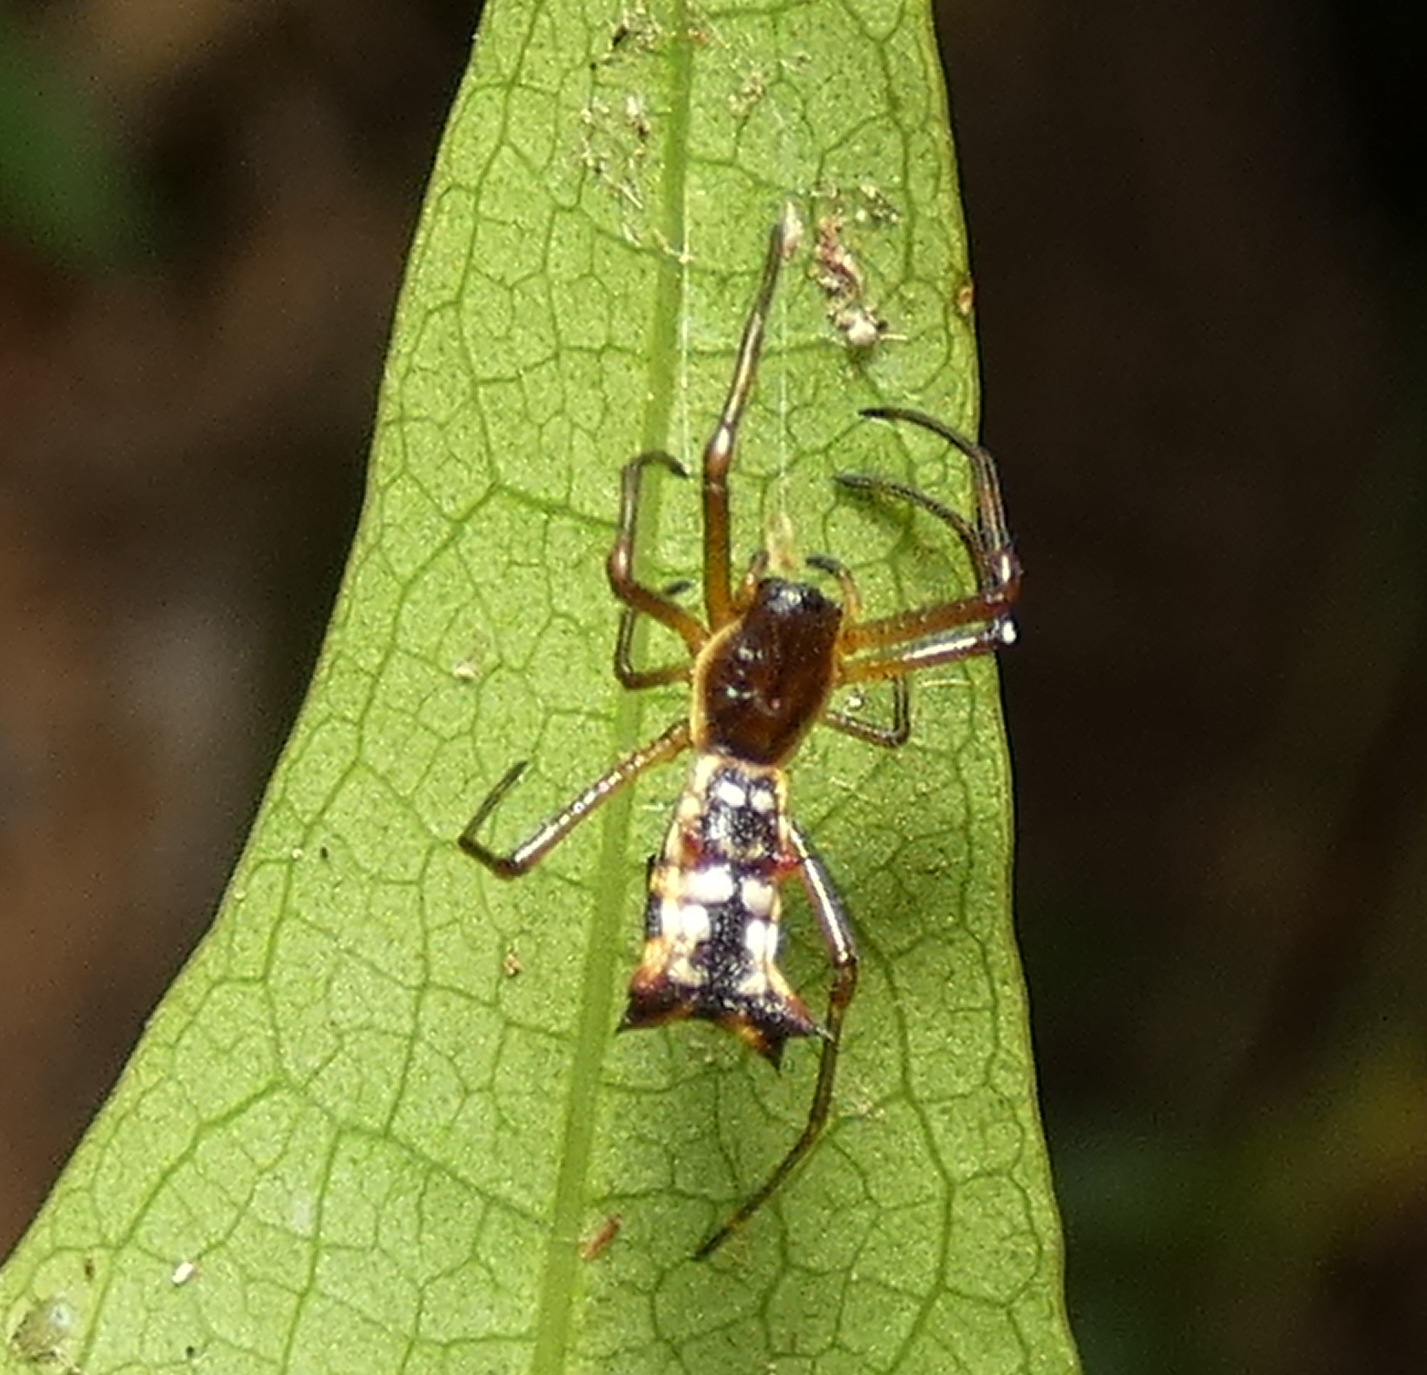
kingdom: Animalia
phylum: Arthropoda
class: Arachnida
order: Araneae
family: Araneidae
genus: Micrathena
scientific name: Micrathena fissispina
